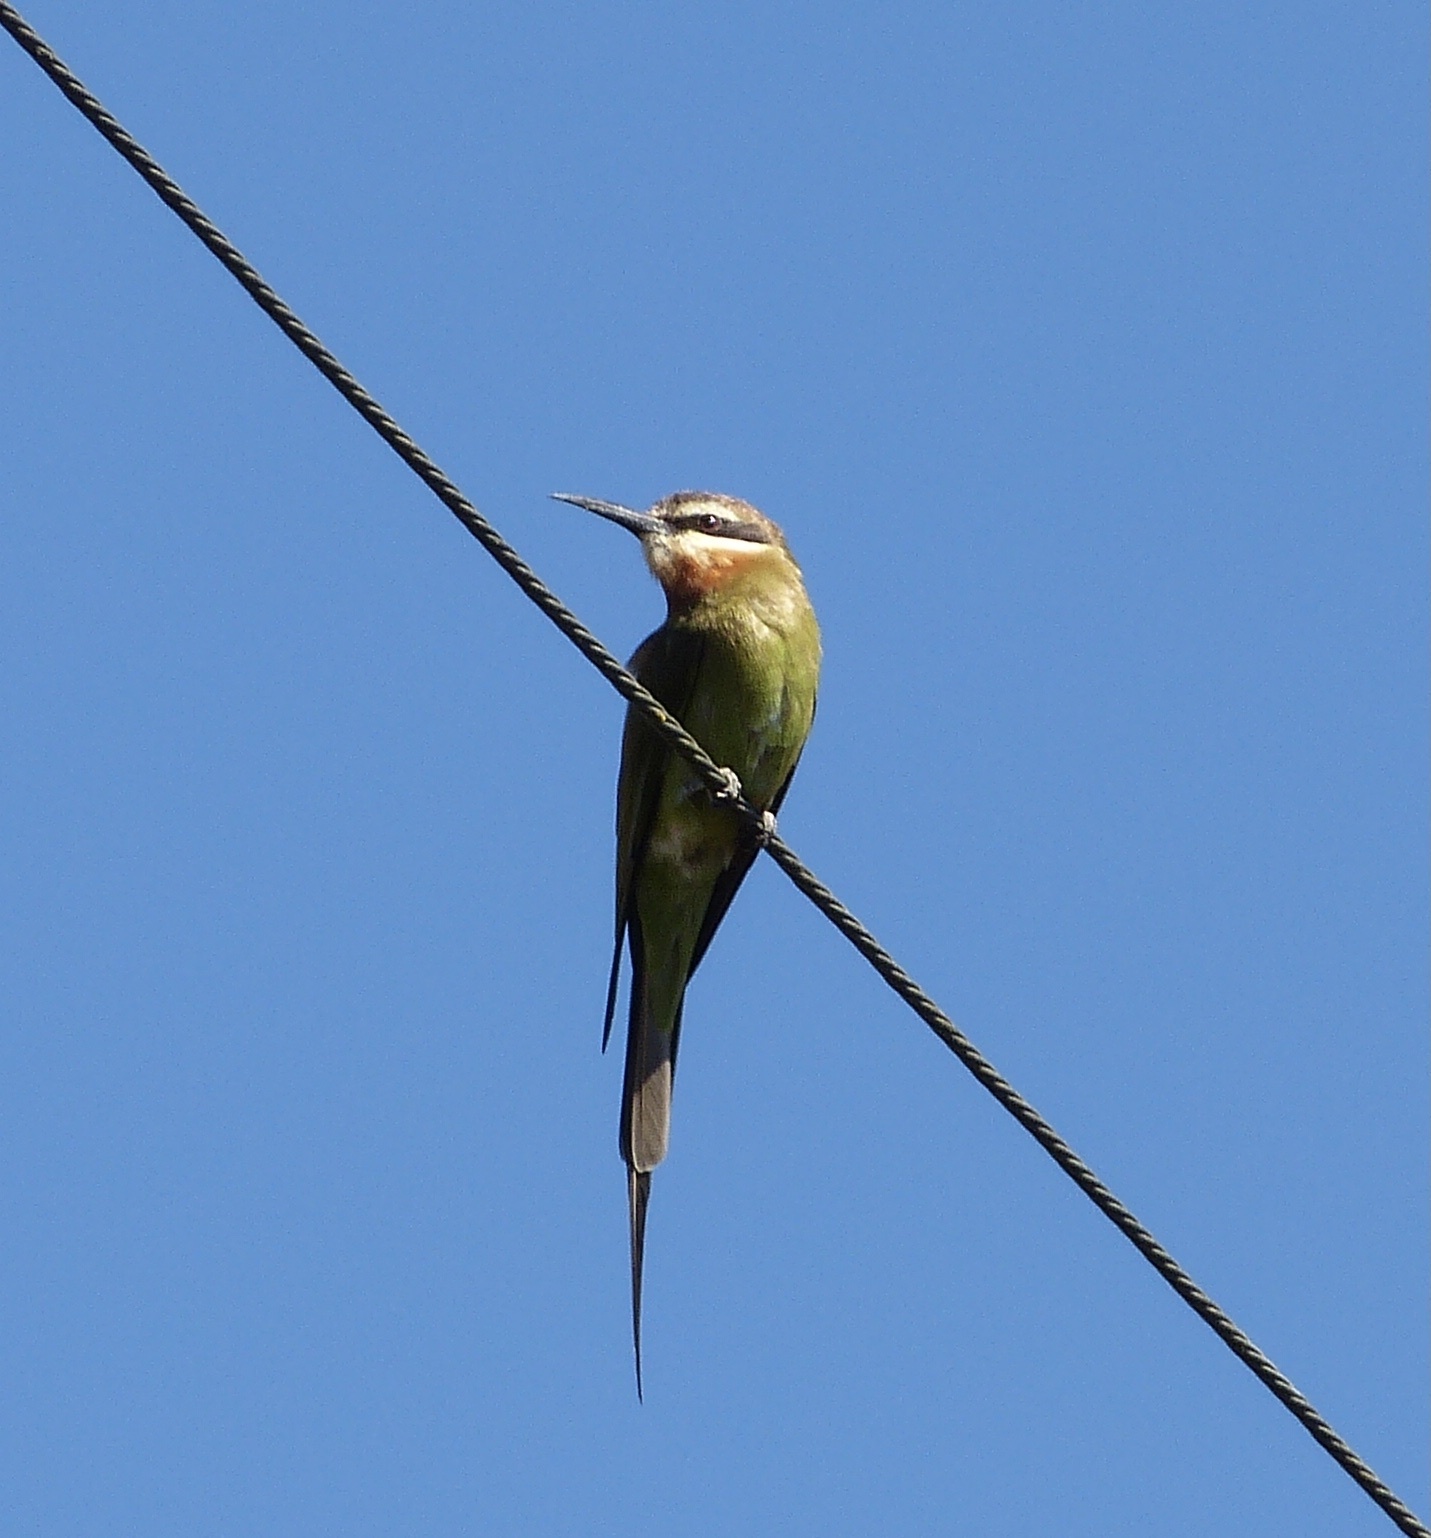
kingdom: Animalia
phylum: Chordata
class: Aves
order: Coraciiformes
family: Meropidae
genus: Merops
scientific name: Merops superciliosus
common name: Olive bee-eater
